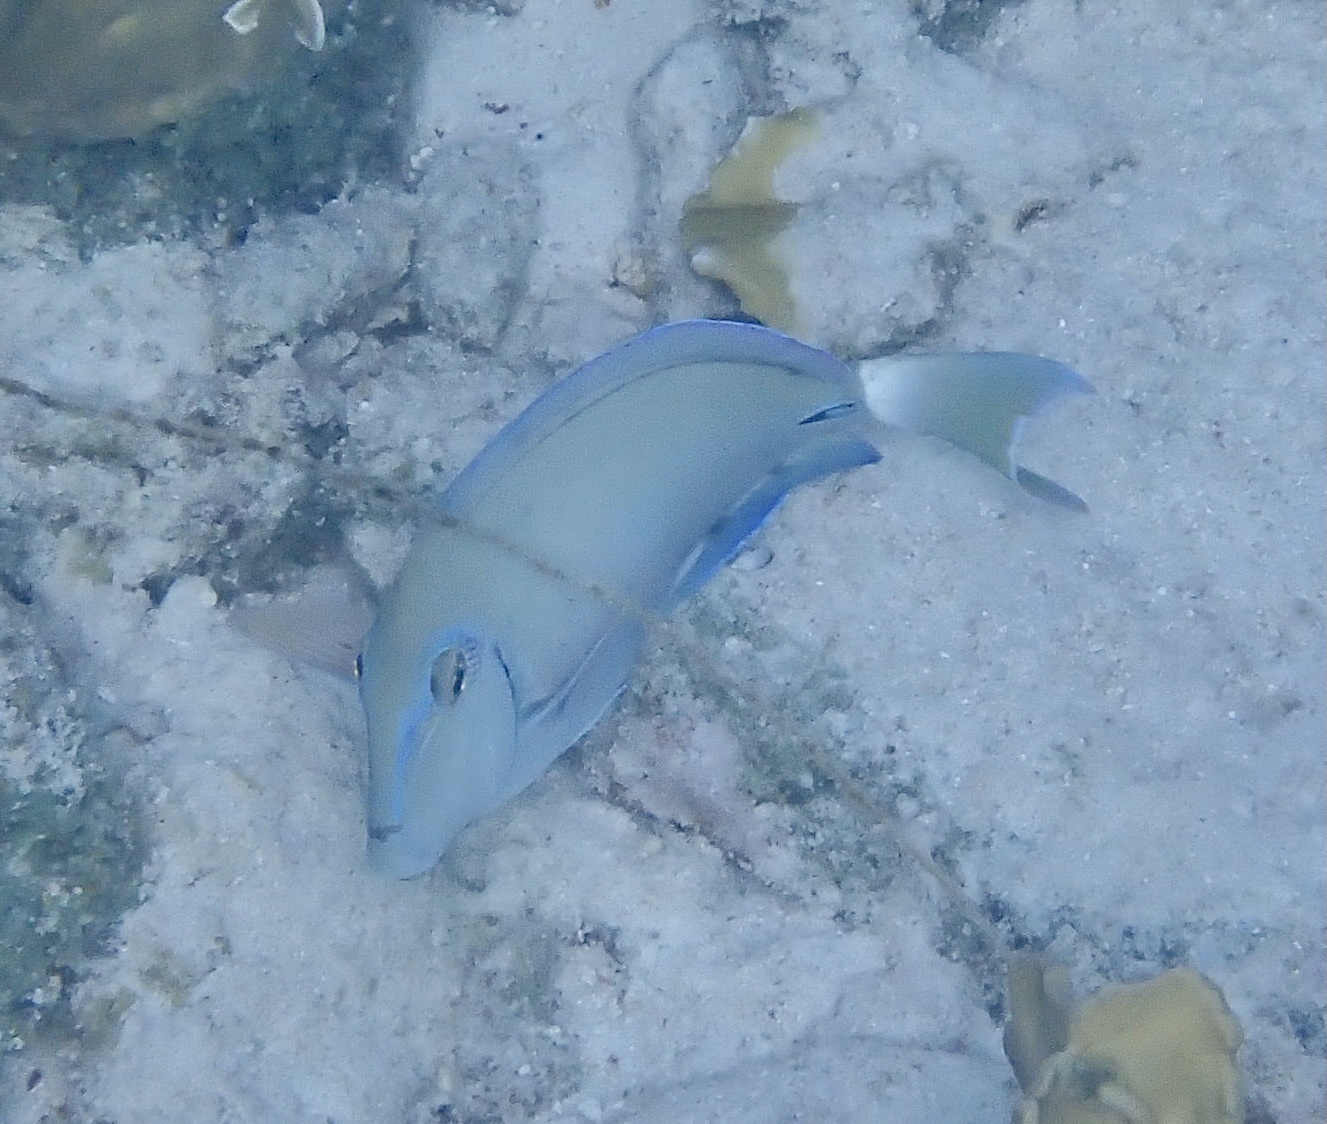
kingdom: Animalia
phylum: Chordata
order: Perciformes
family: Acanthuridae
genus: Acanthurus
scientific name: Acanthurus bahianus
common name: Ocean surgeon
